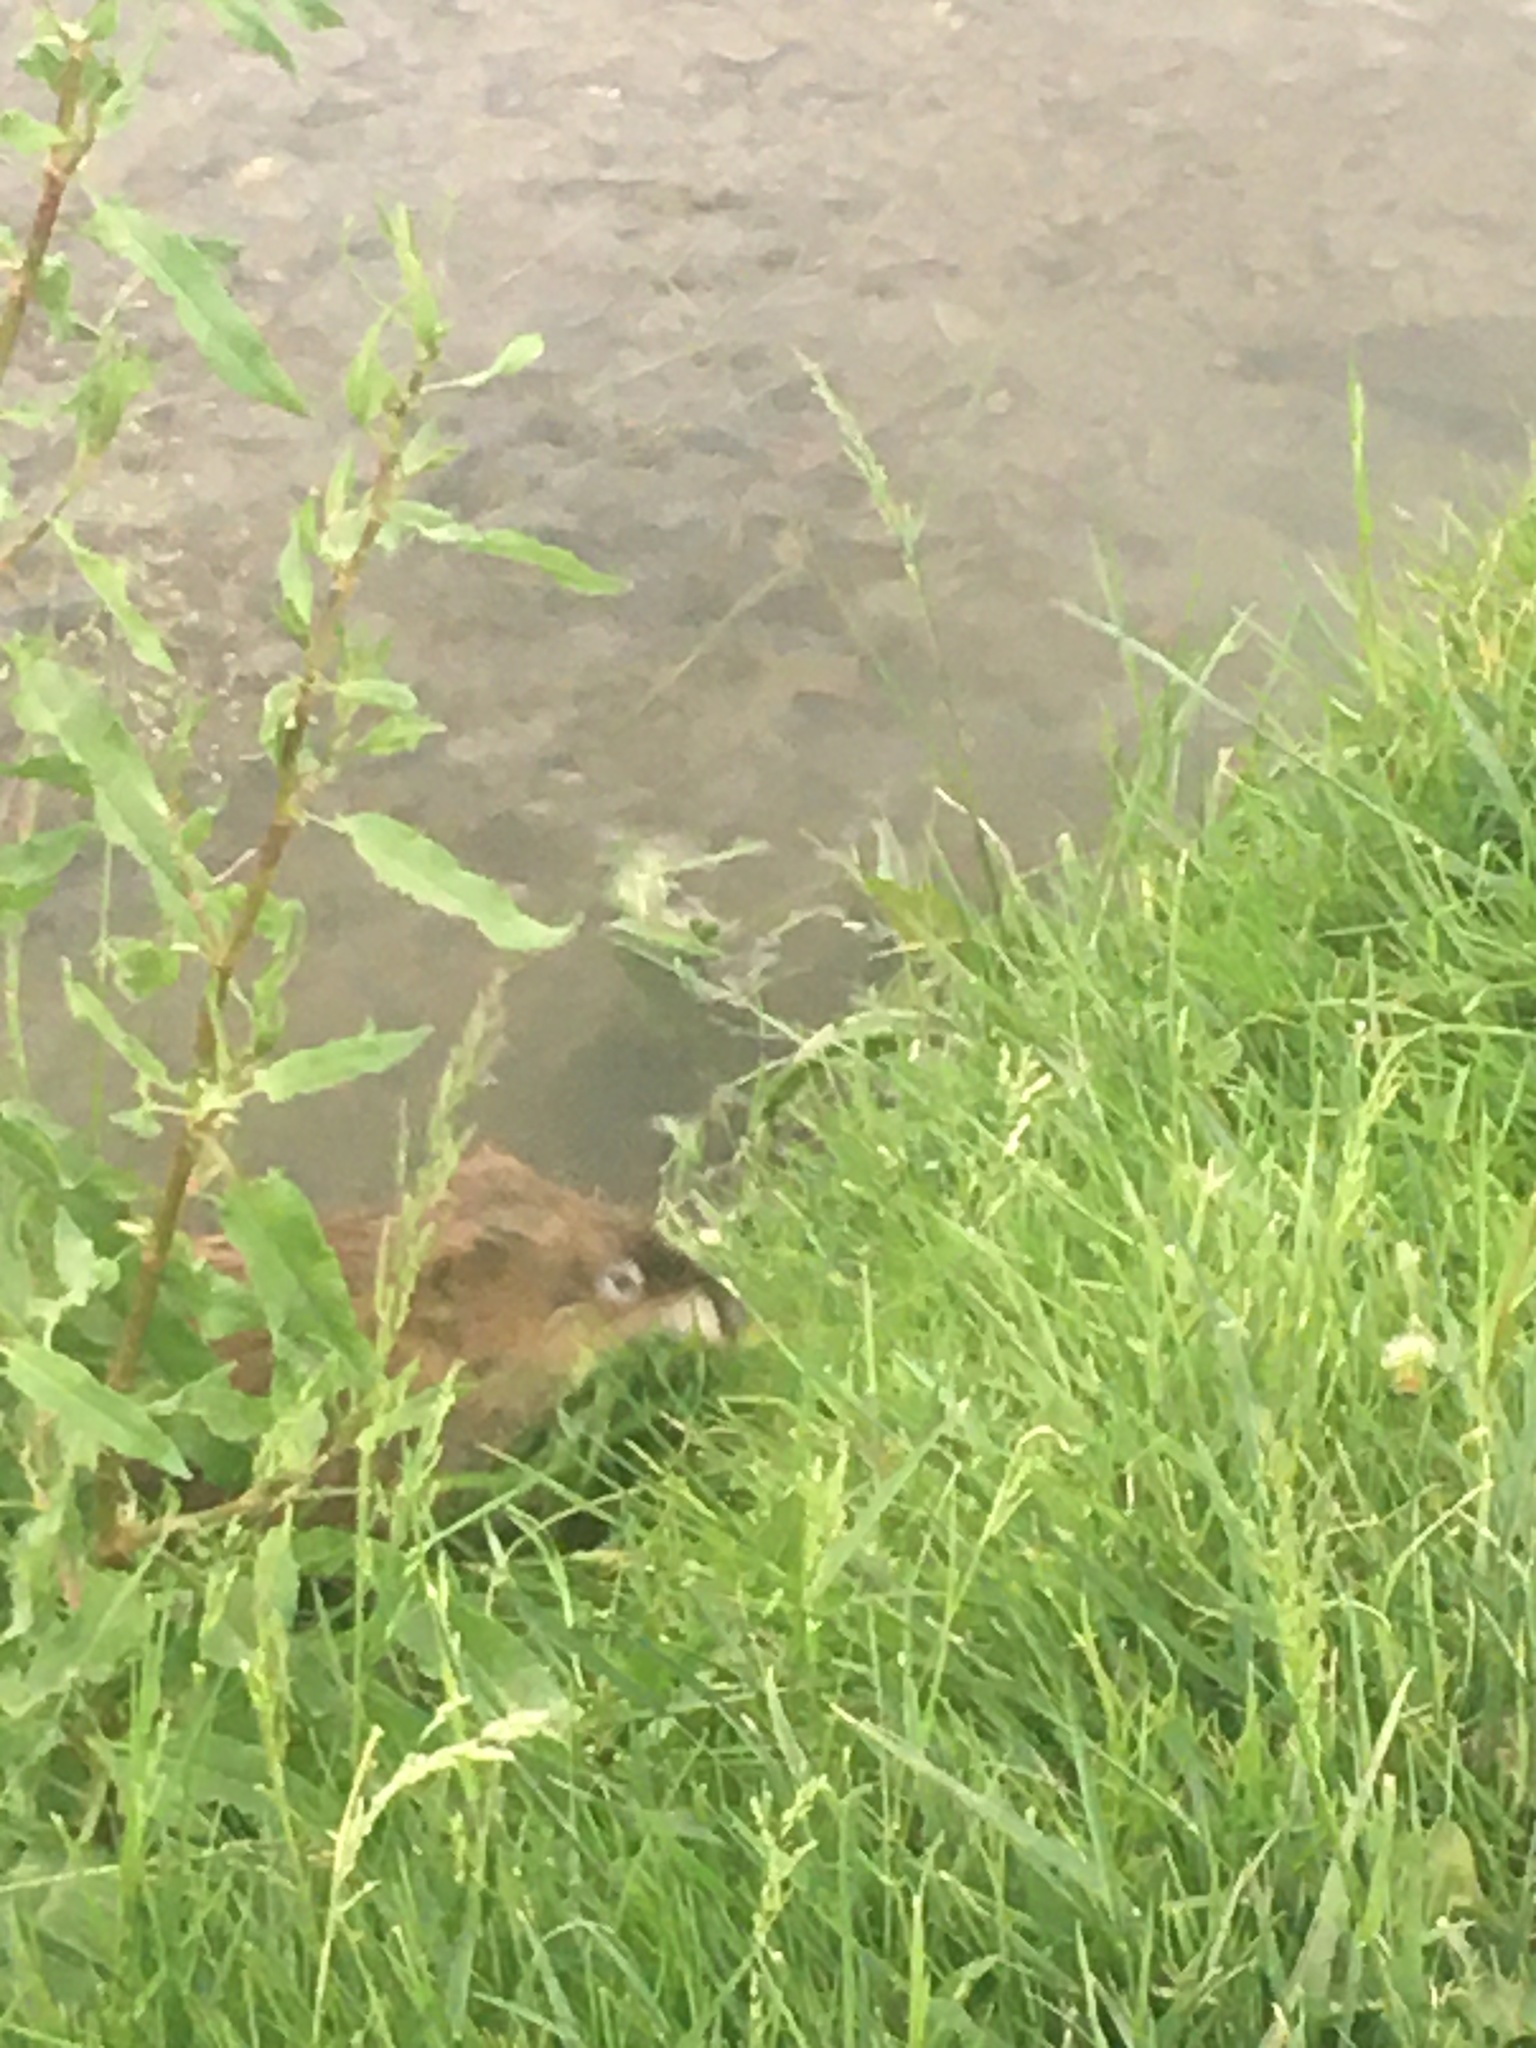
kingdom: Animalia
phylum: Chordata
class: Mammalia
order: Rodentia
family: Cricetidae
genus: Ondatra
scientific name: Ondatra zibethicus
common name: Muskrat
